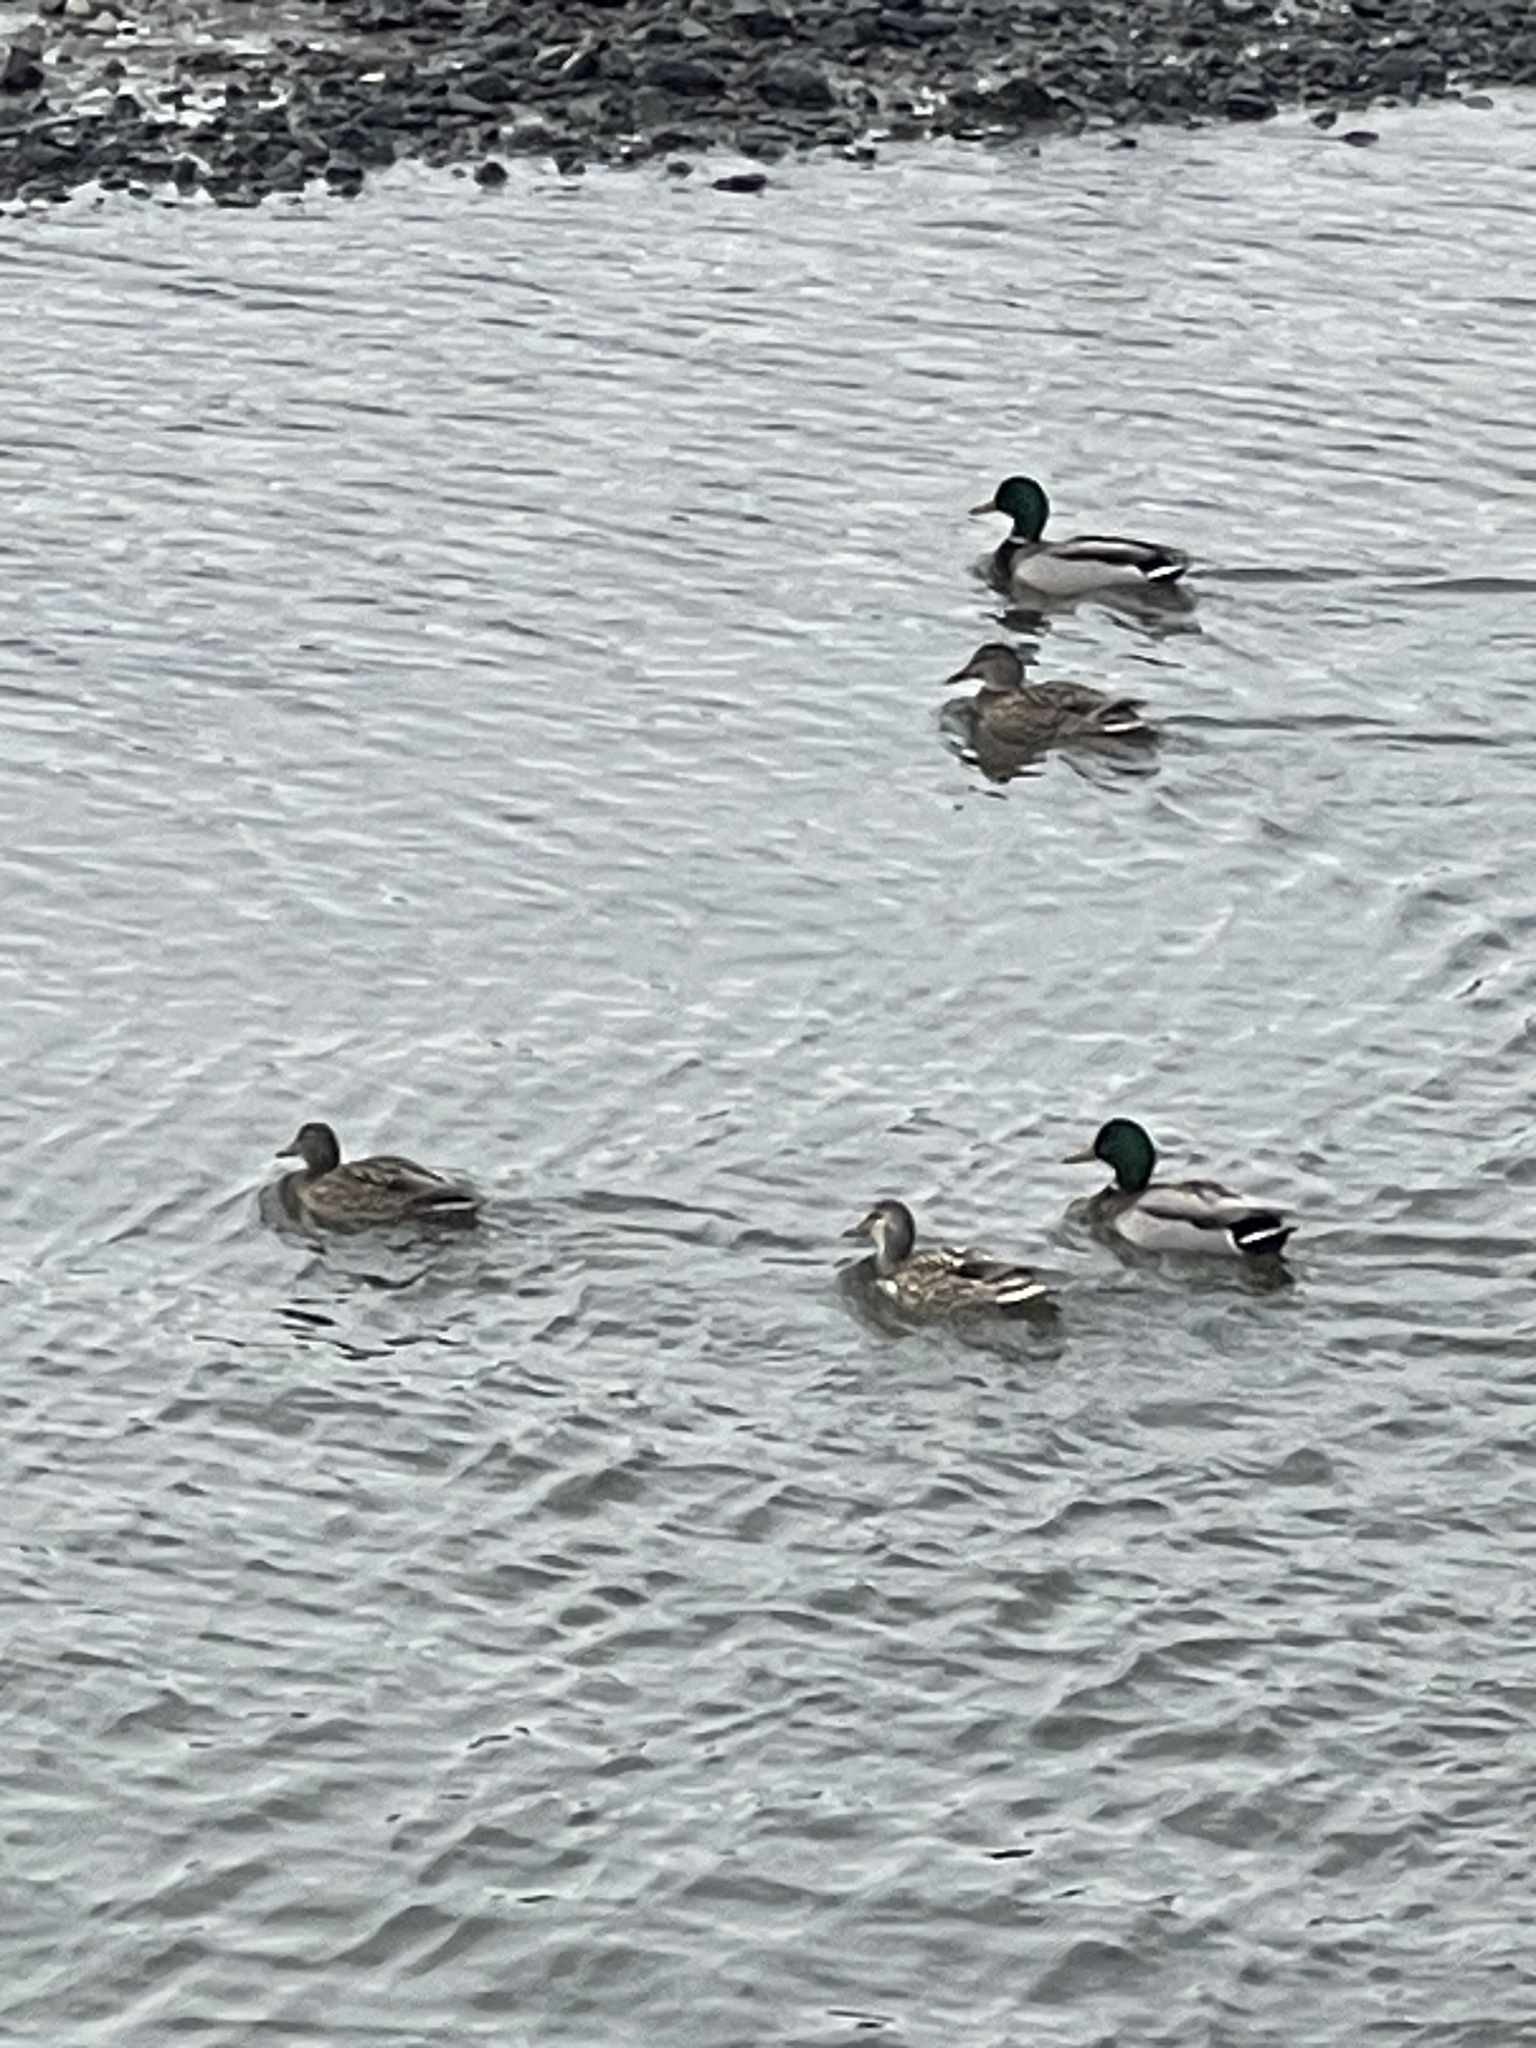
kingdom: Animalia
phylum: Chordata
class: Aves
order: Anseriformes
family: Anatidae
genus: Anas
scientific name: Anas platyrhynchos
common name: Mallard
